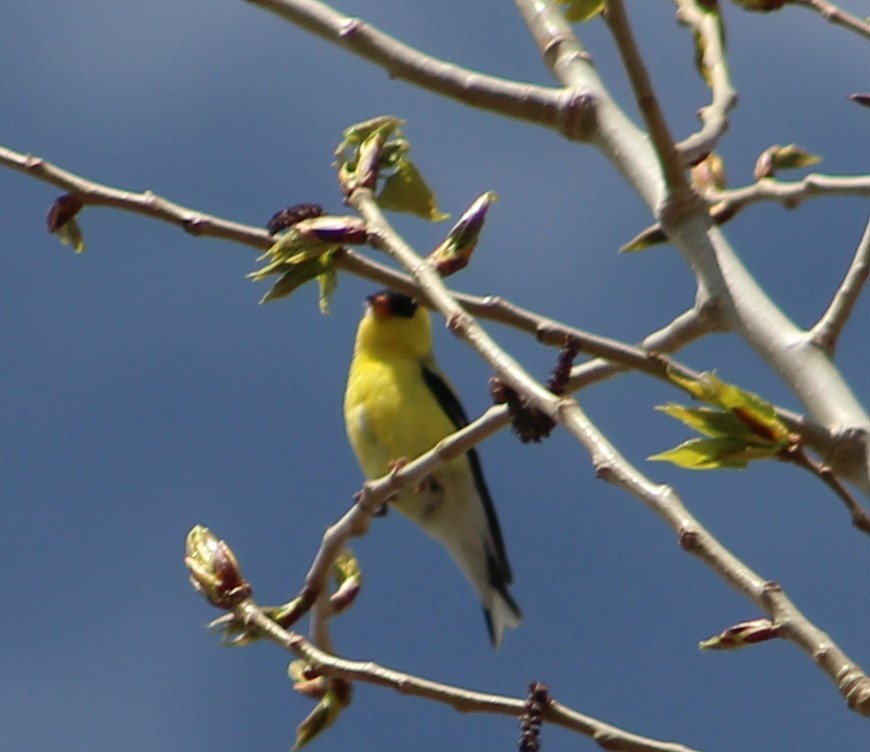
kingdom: Animalia
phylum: Chordata
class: Aves
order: Passeriformes
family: Fringillidae
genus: Spinus
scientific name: Spinus tristis
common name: American goldfinch
